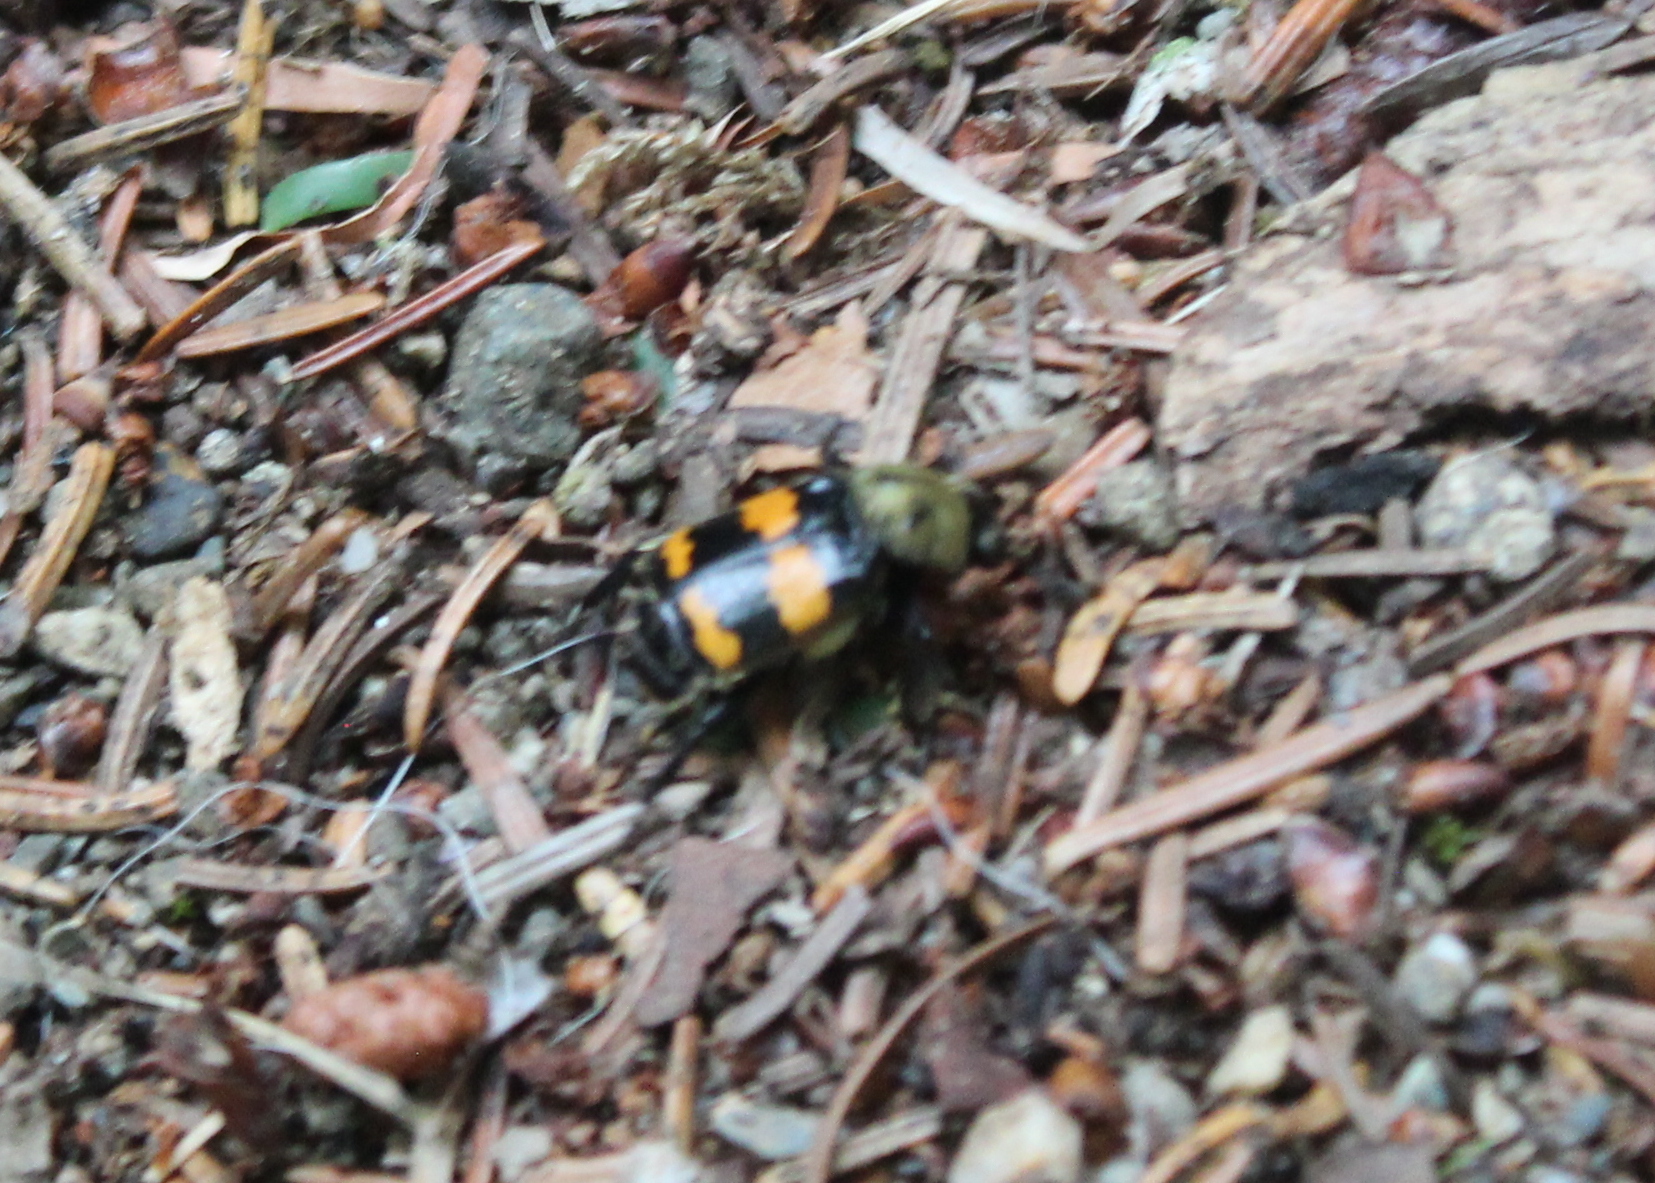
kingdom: Animalia
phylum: Arthropoda
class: Insecta
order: Coleoptera
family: Staphylinidae
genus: Nicrophorus
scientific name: Nicrophorus tomentosus
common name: Tomentose burying beetle
